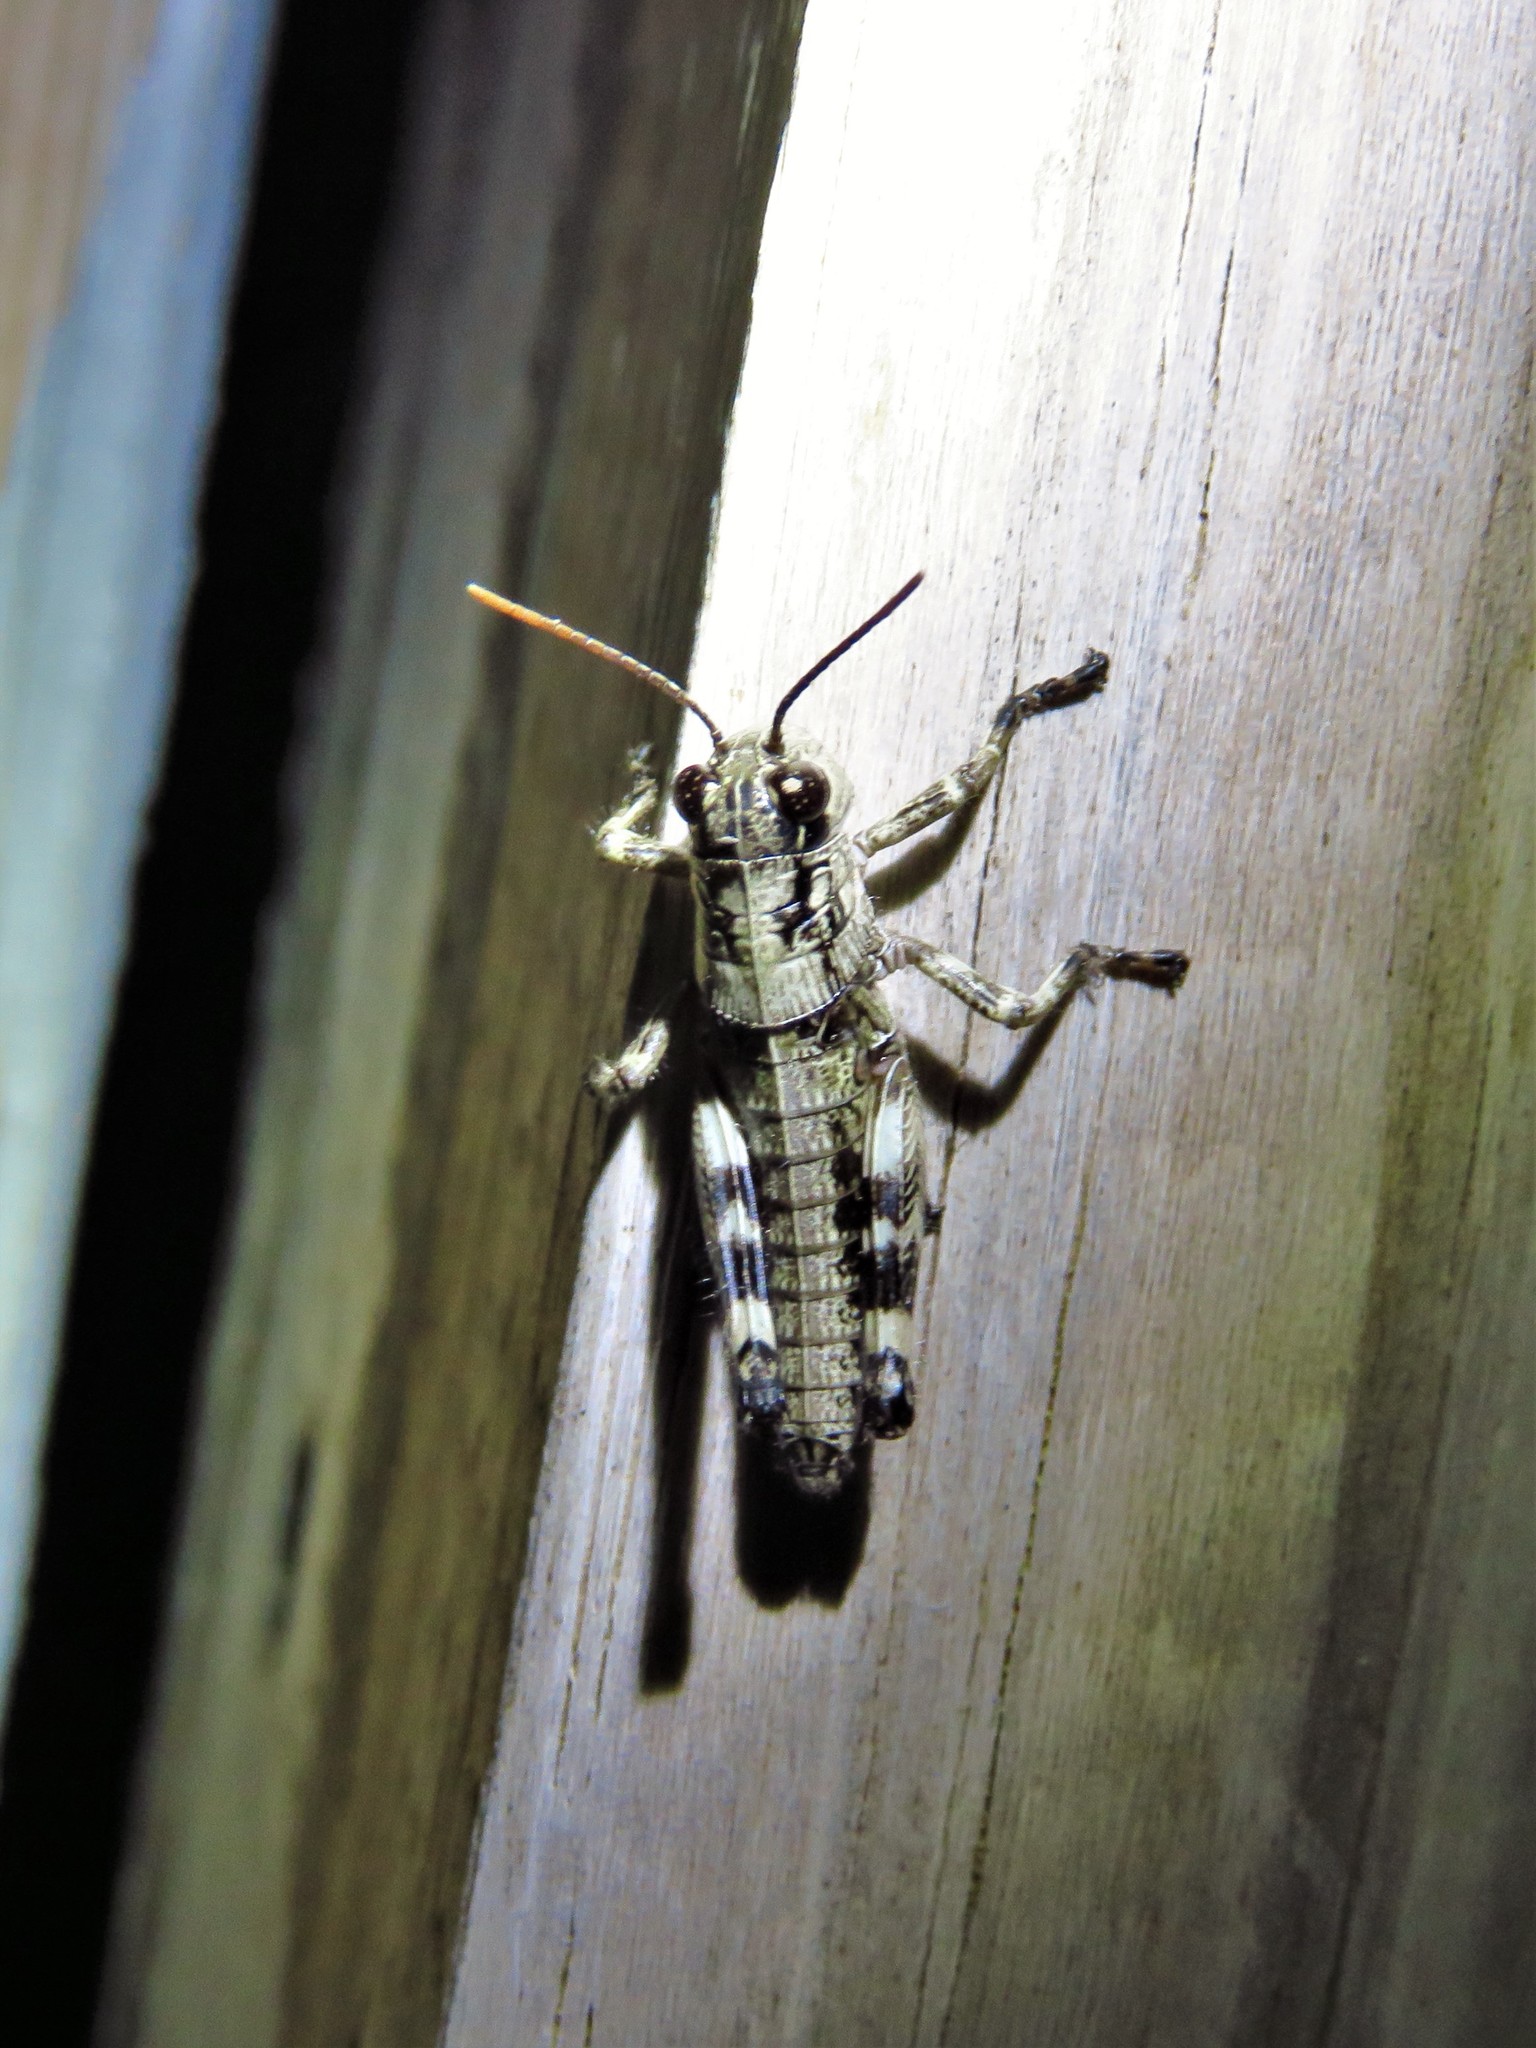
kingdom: Animalia
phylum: Arthropoda
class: Insecta
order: Orthoptera
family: Acrididae
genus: Dendrotettix
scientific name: Dendrotettix quercus
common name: Post oak grasshopper
